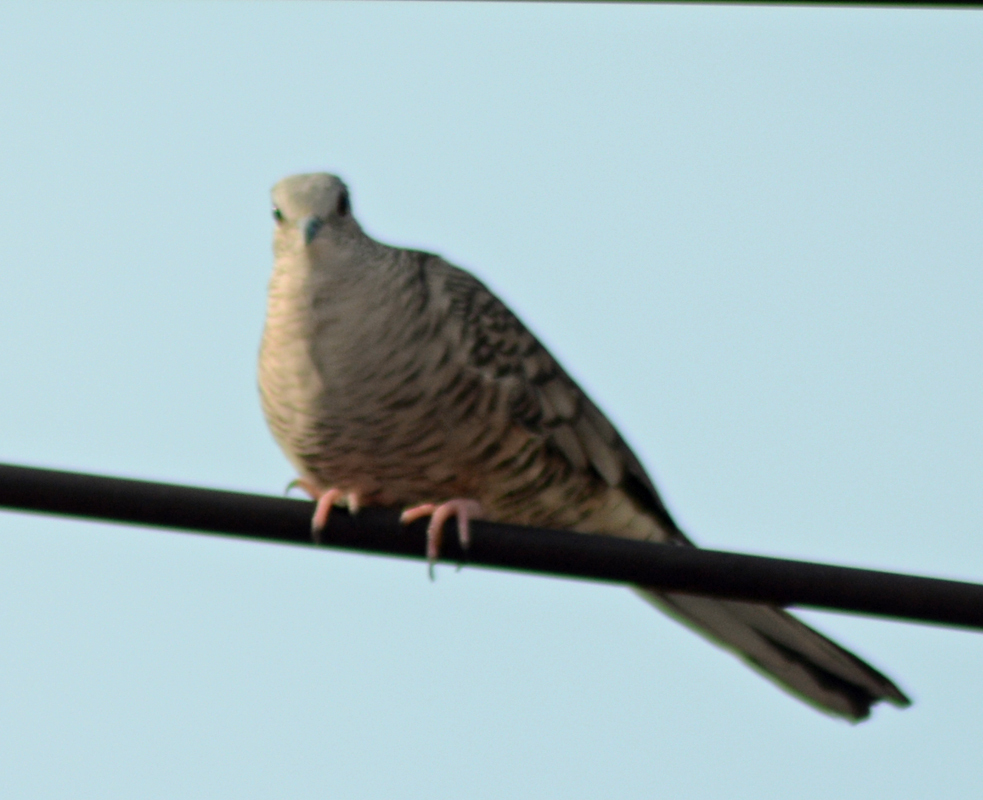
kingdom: Animalia
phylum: Chordata
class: Aves
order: Columbiformes
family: Columbidae
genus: Columbina
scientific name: Columbina inca
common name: Inca dove
